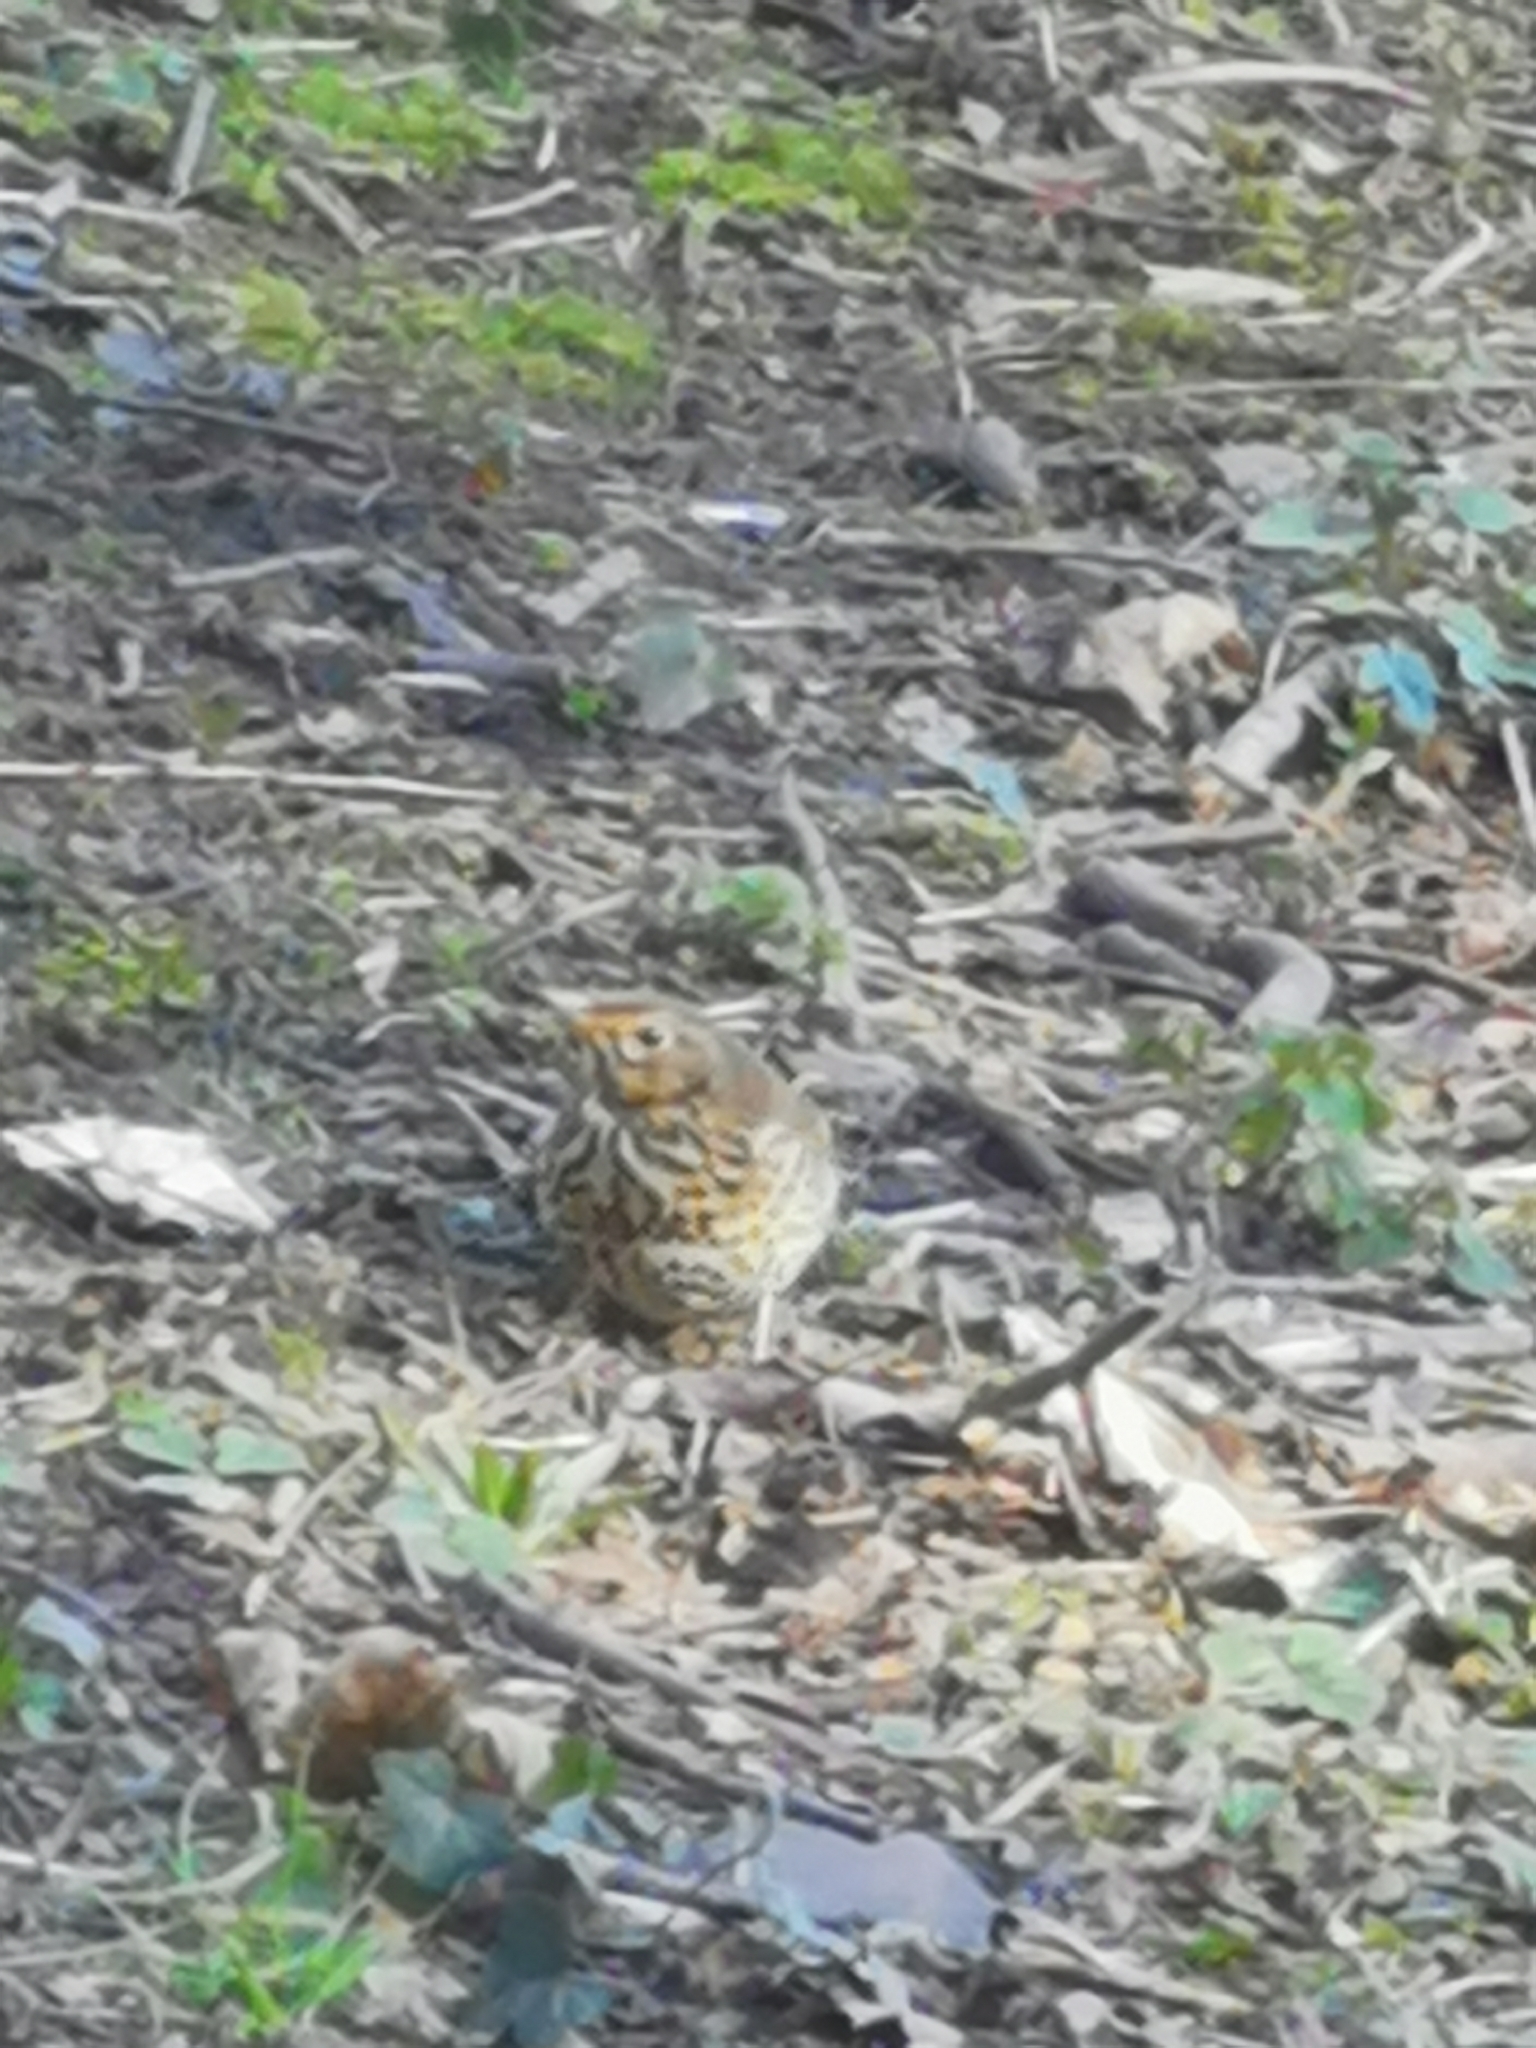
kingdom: Animalia
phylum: Chordata
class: Aves
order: Passeriformes
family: Turdidae
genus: Turdus
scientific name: Turdus philomelos
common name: Song thrush
